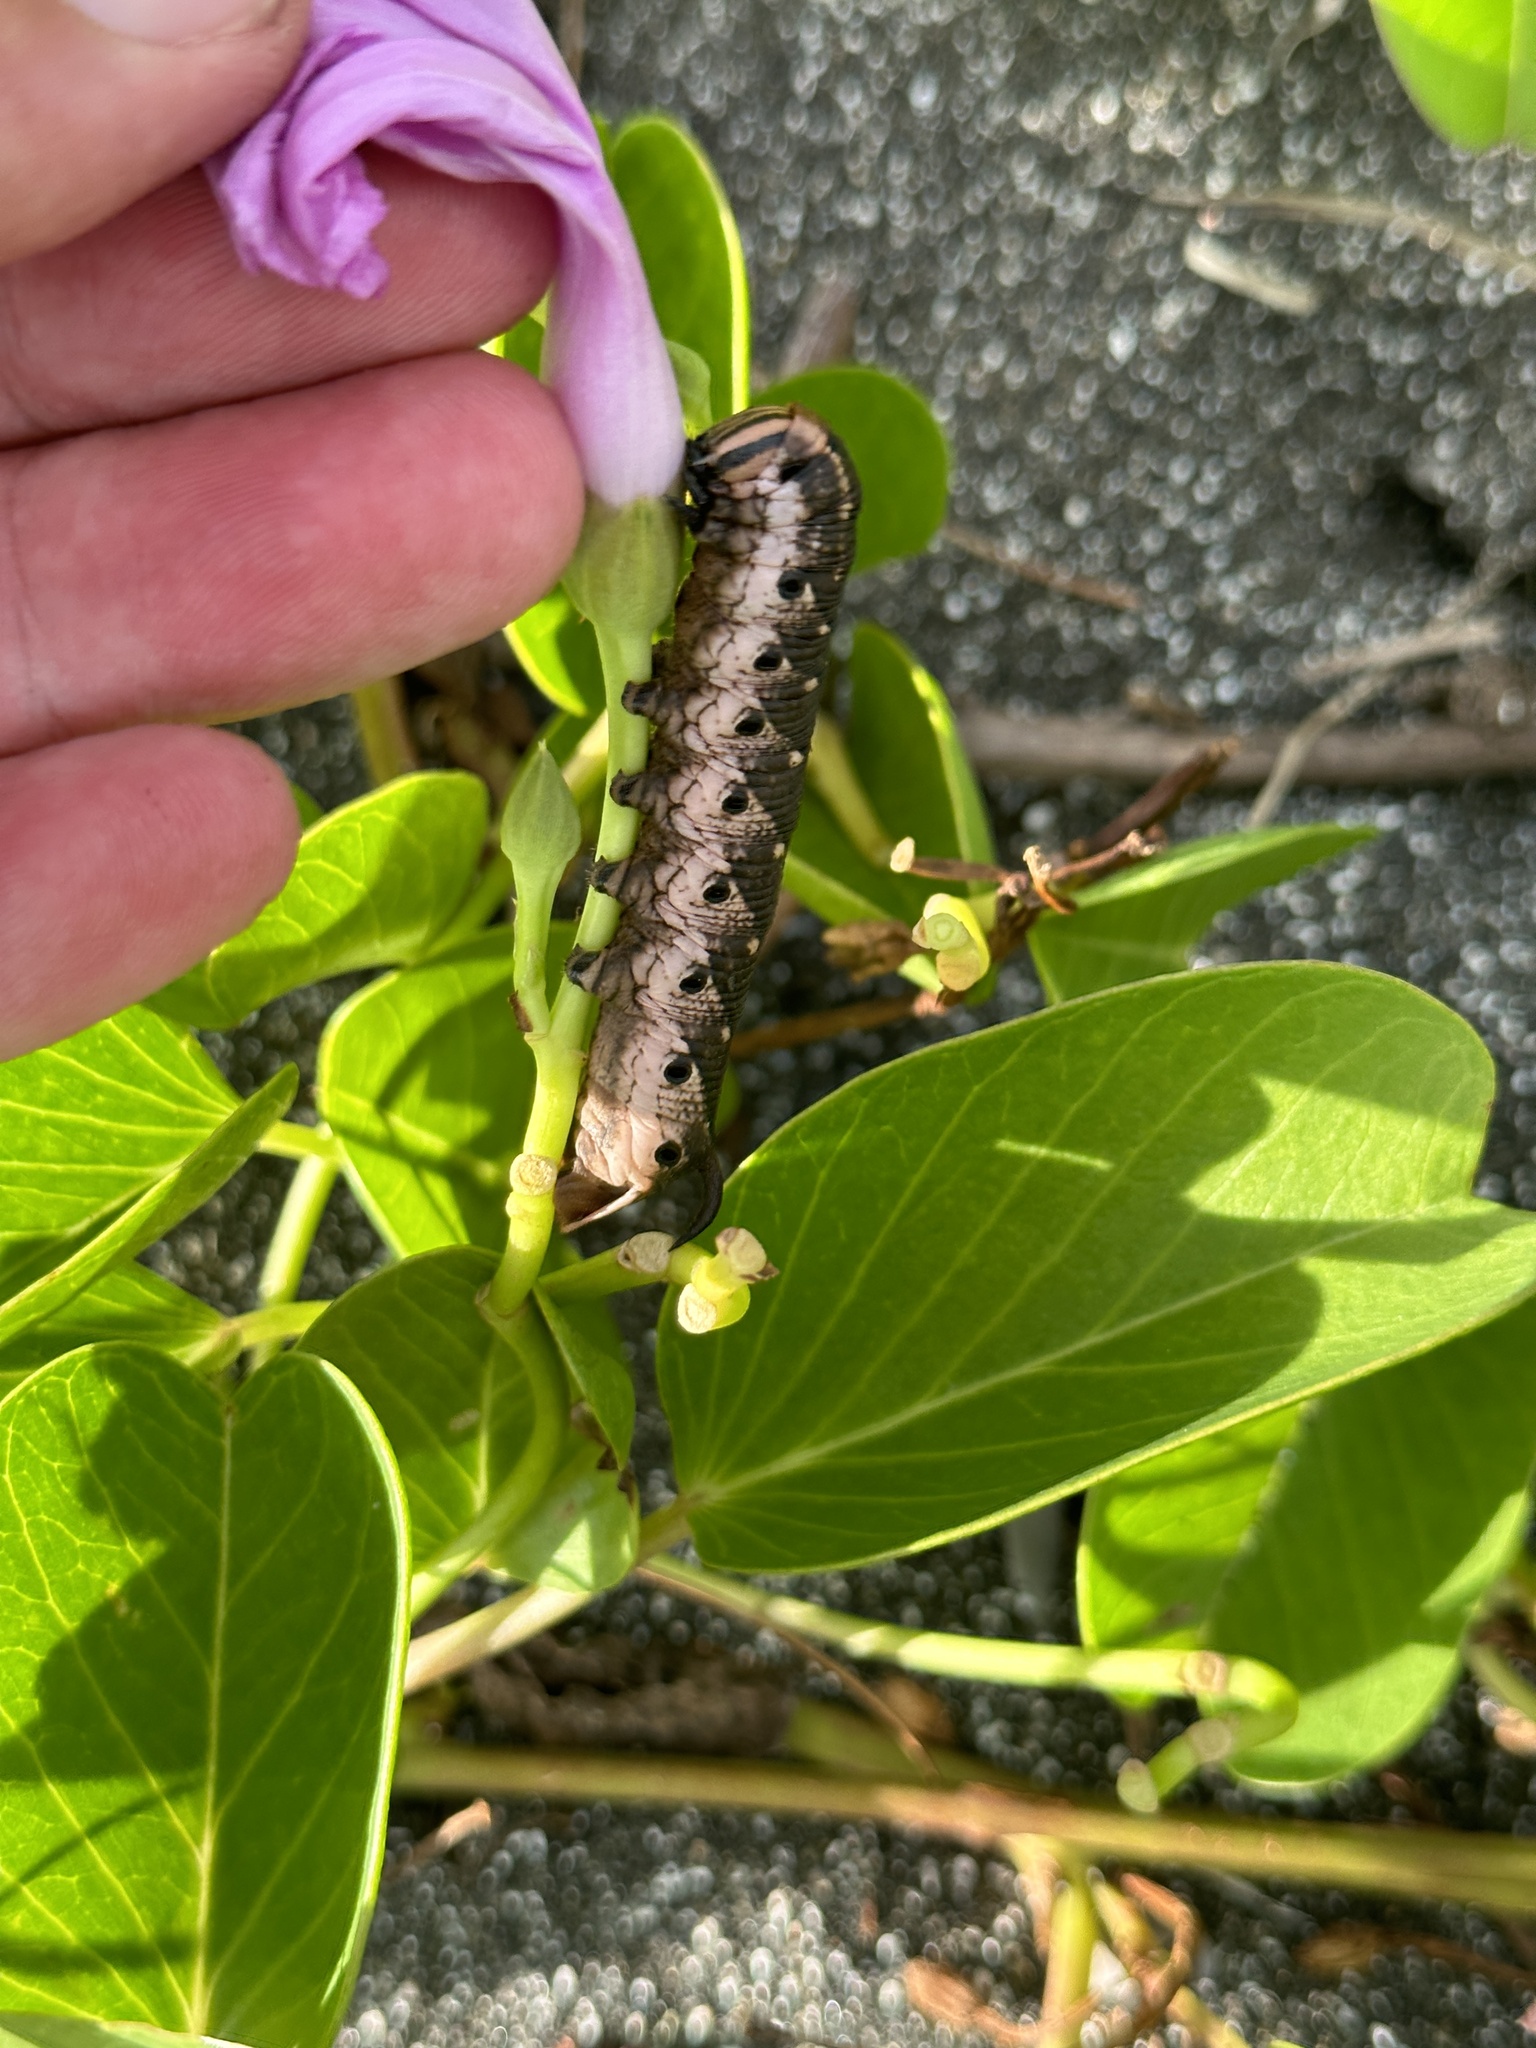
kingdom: Animalia
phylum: Arthropoda
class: Insecta
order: Lepidoptera
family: Sphingidae
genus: Agrius
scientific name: Agrius convolvuli
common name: Convolvulus hawkmoth
